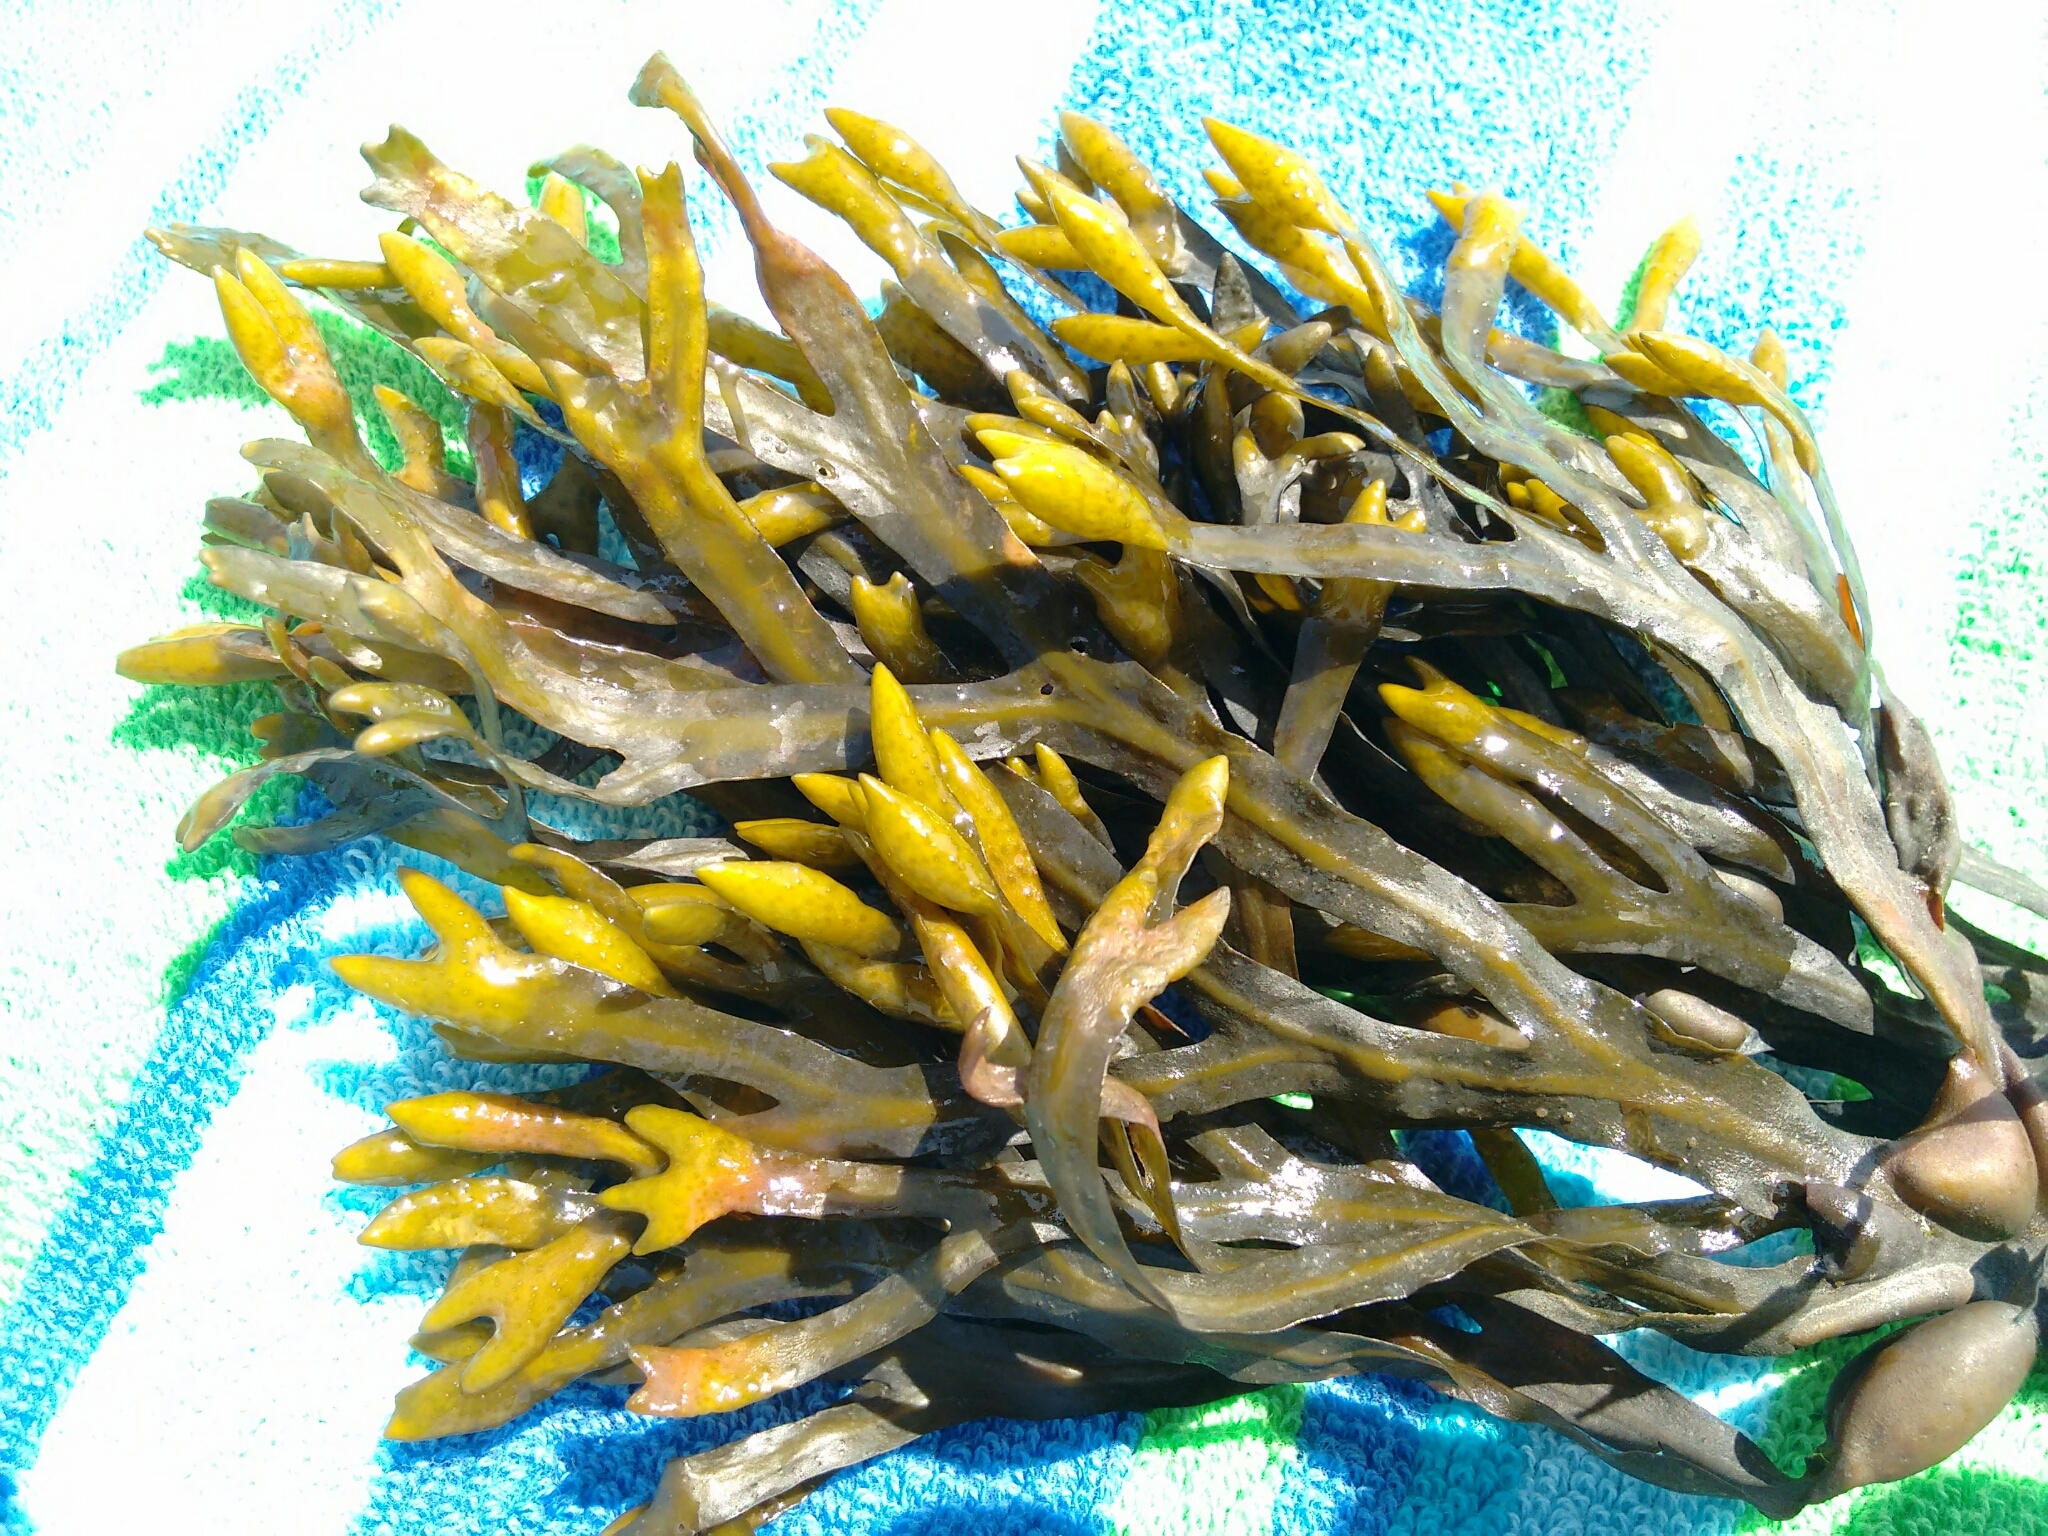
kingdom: Chromista
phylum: Ochrophyta
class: Phaeophyceae
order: Fucales
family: Fucaceae
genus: Fucus
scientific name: Fucus distichus
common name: Rockweed
